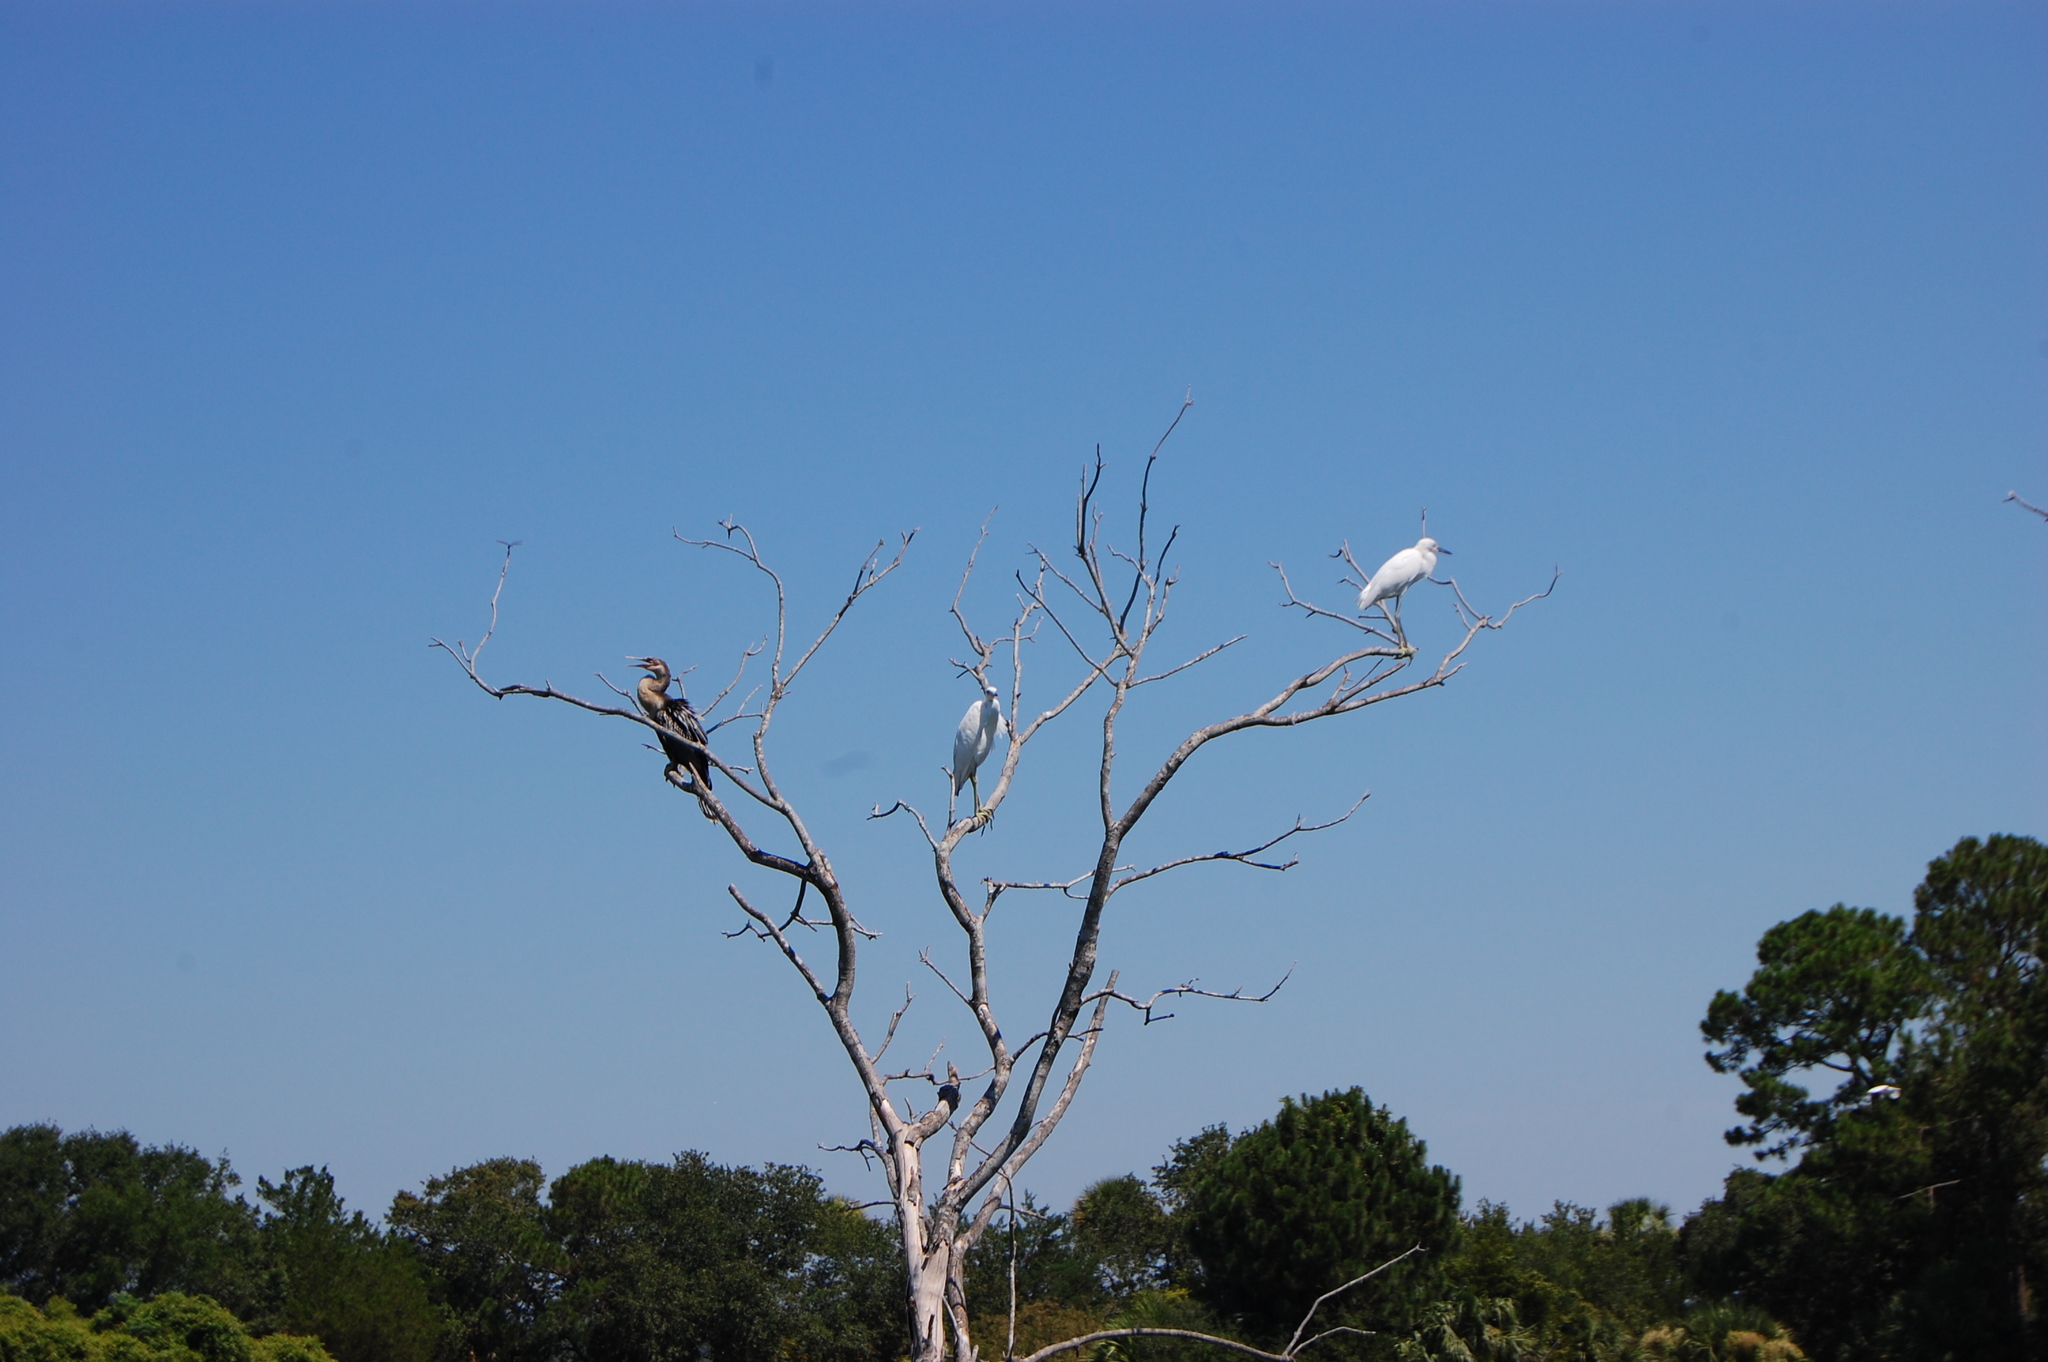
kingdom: Animalia
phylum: Chordata
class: Aves
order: Suliformes
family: Anhingidae
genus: Anhinga
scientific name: Anhinga anhinga
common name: Anhinga
